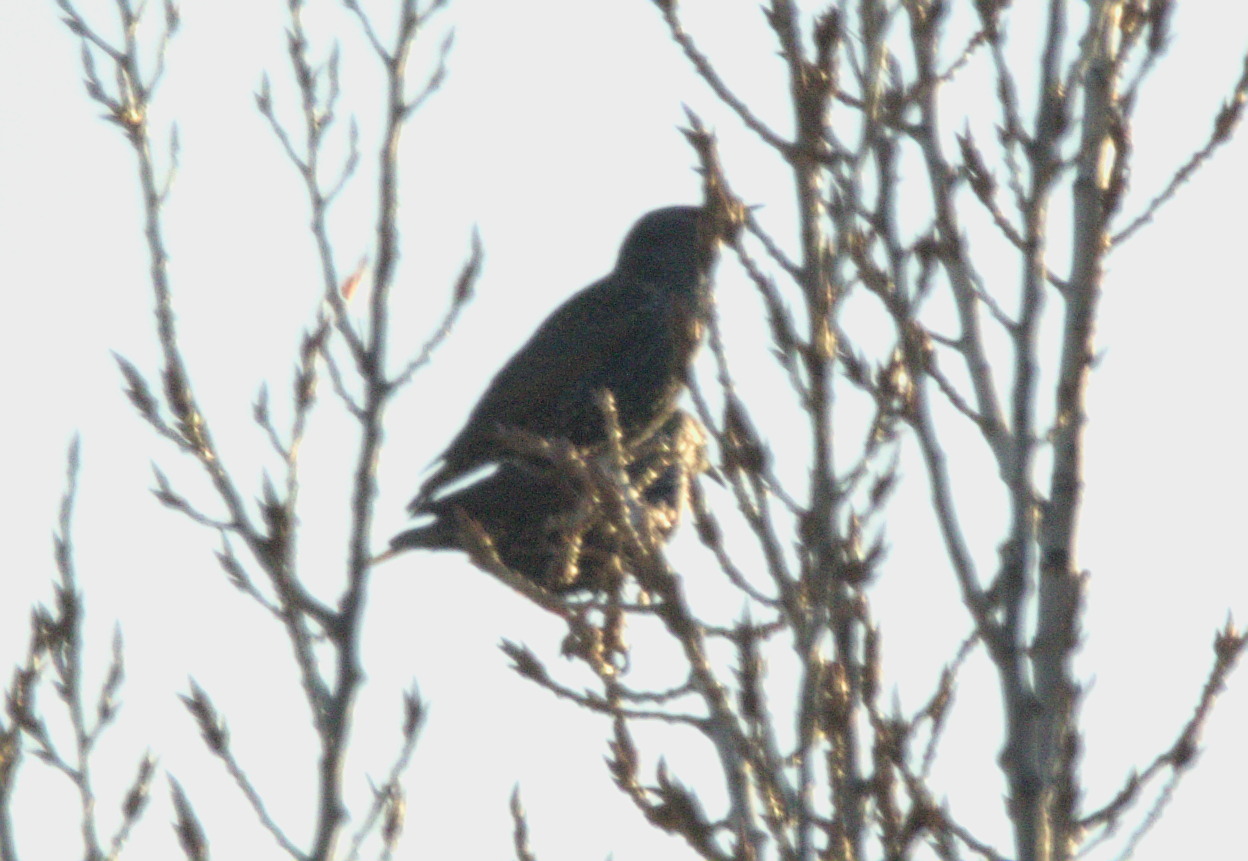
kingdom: Animalia
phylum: Chordata
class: Aves
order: Passeriformes
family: Sturnidae
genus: Sturnus
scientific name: Sturnus vulgaris
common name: Common starling
